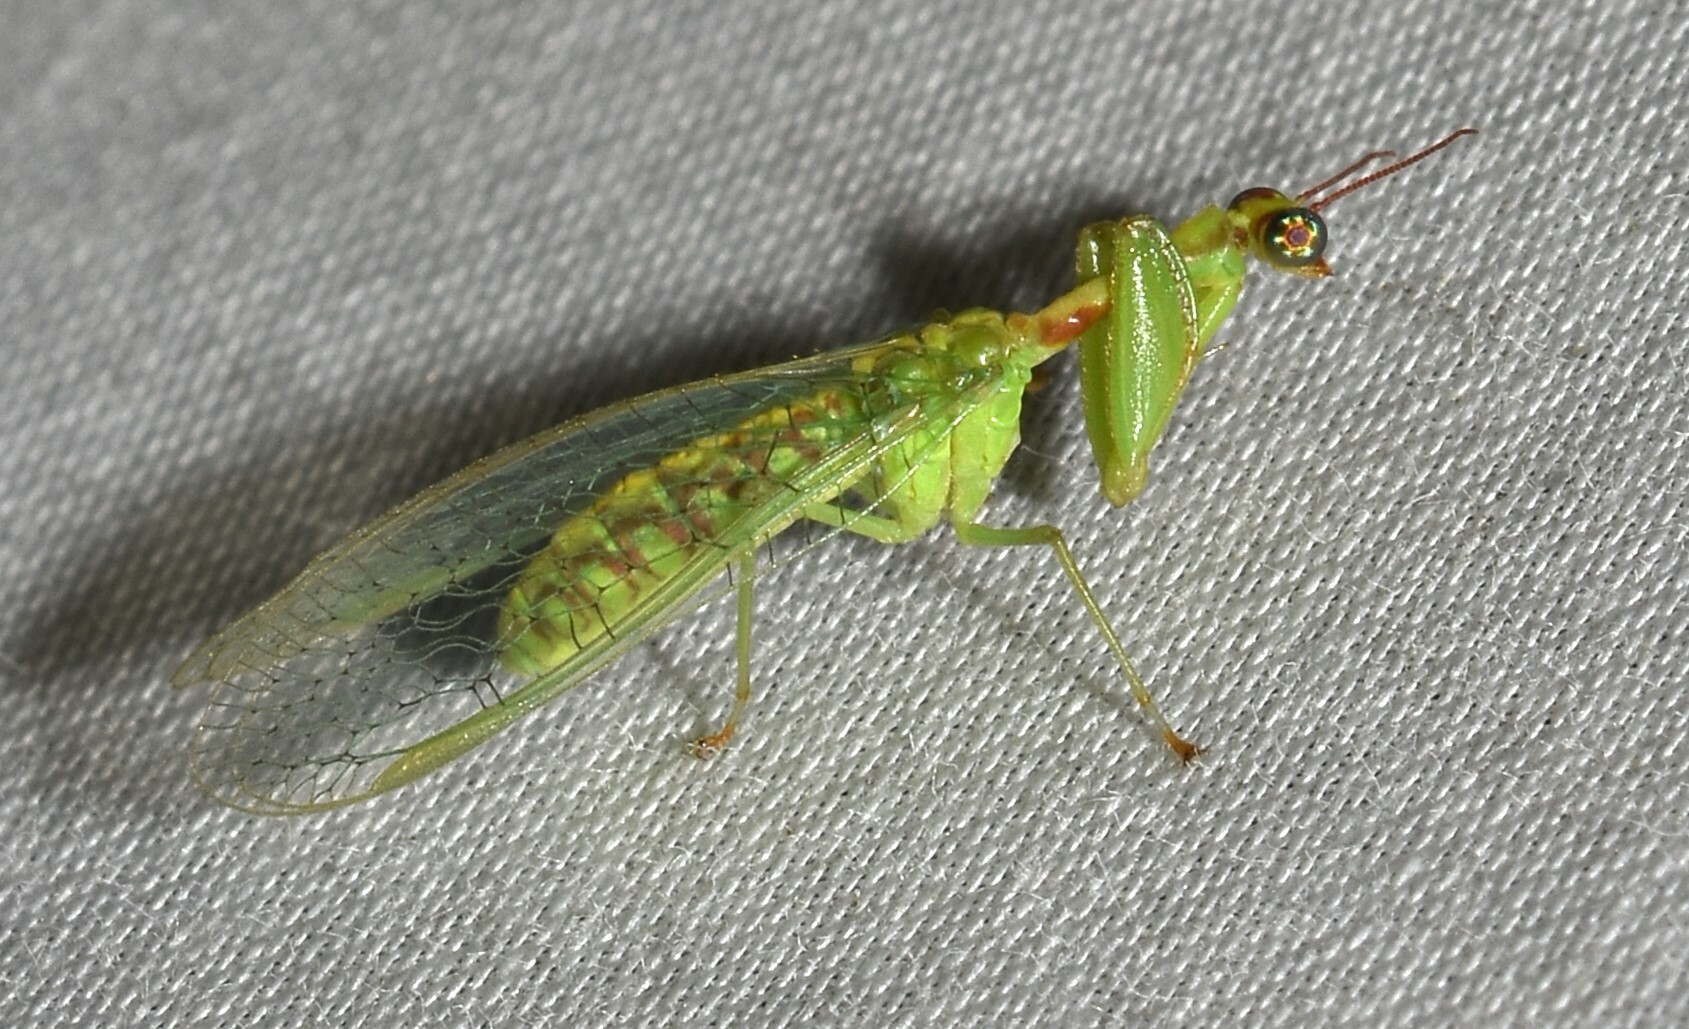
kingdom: Animalia
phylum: Arthropoda
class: Insecta
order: Neuroptera
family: Mantispidae
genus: Zeugomantispa
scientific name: Zeugomantispa minuta
